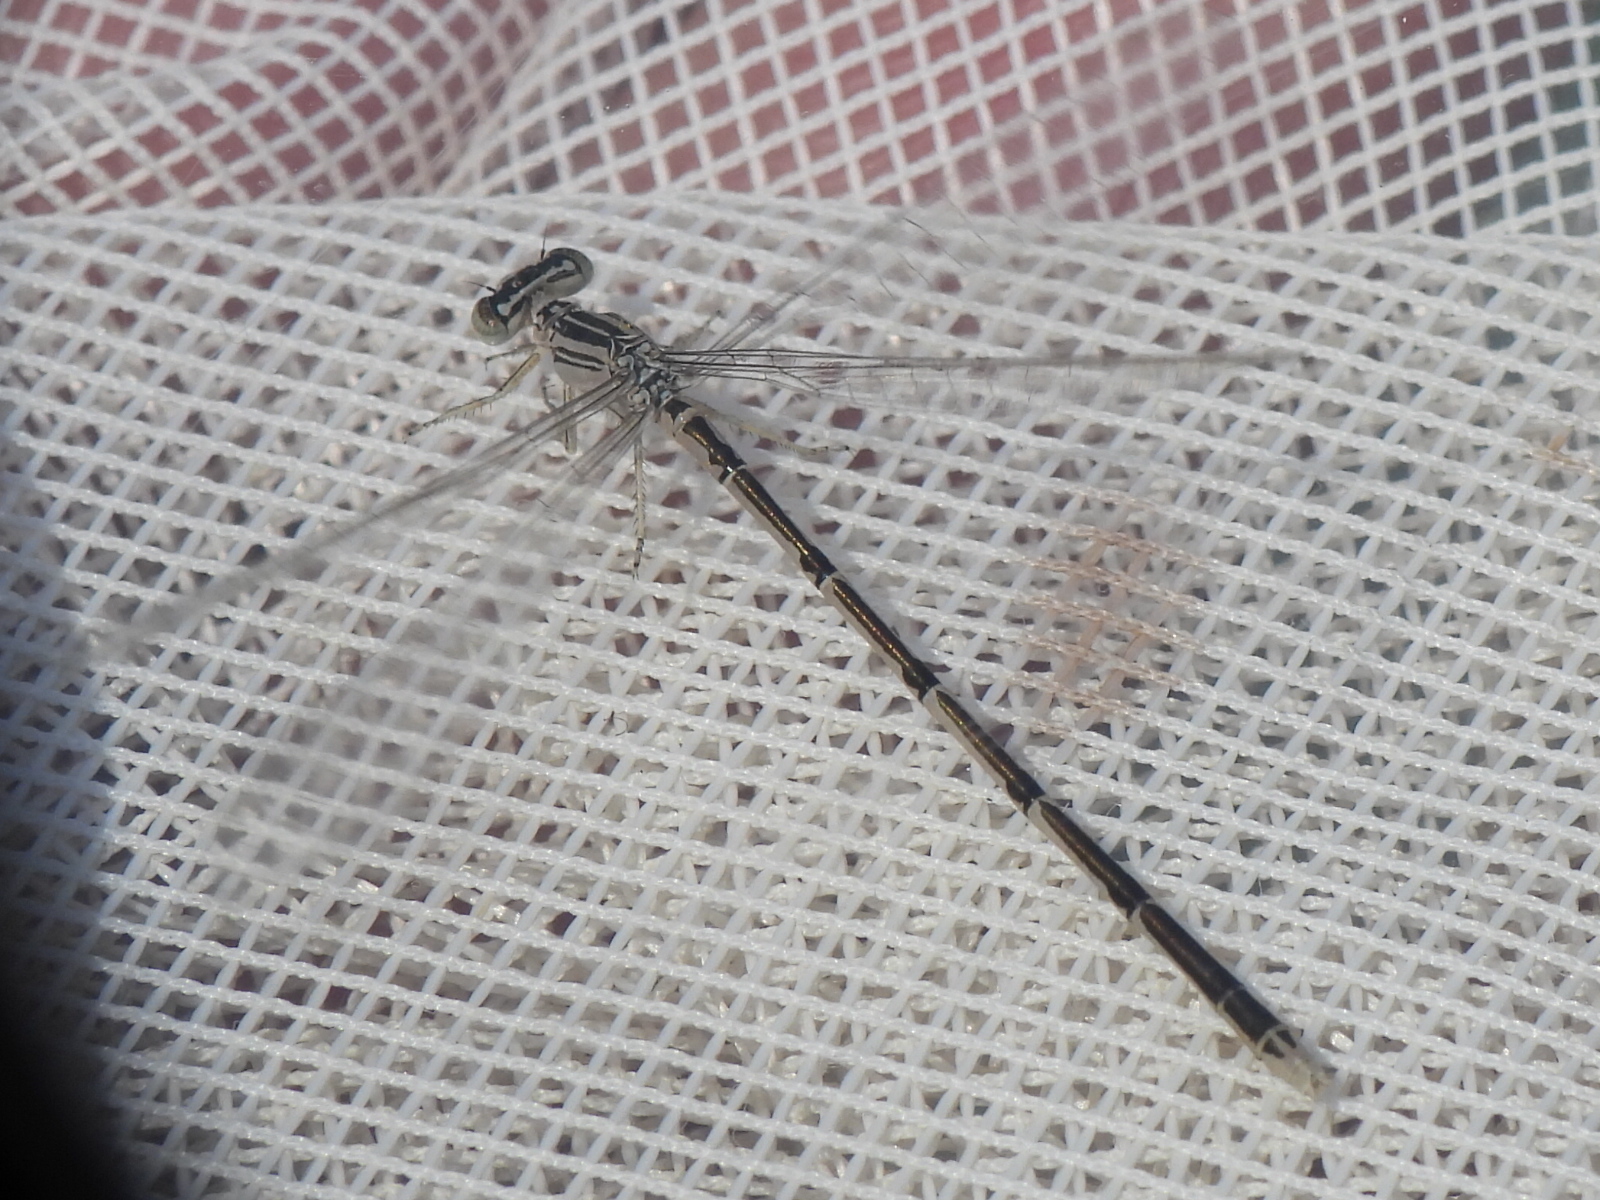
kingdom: Animalia
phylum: Arthropoda
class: Insecta
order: Odonata
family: Coenagrionidae
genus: Enallagma
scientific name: Enallagma basidens
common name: Double-striped bluet
